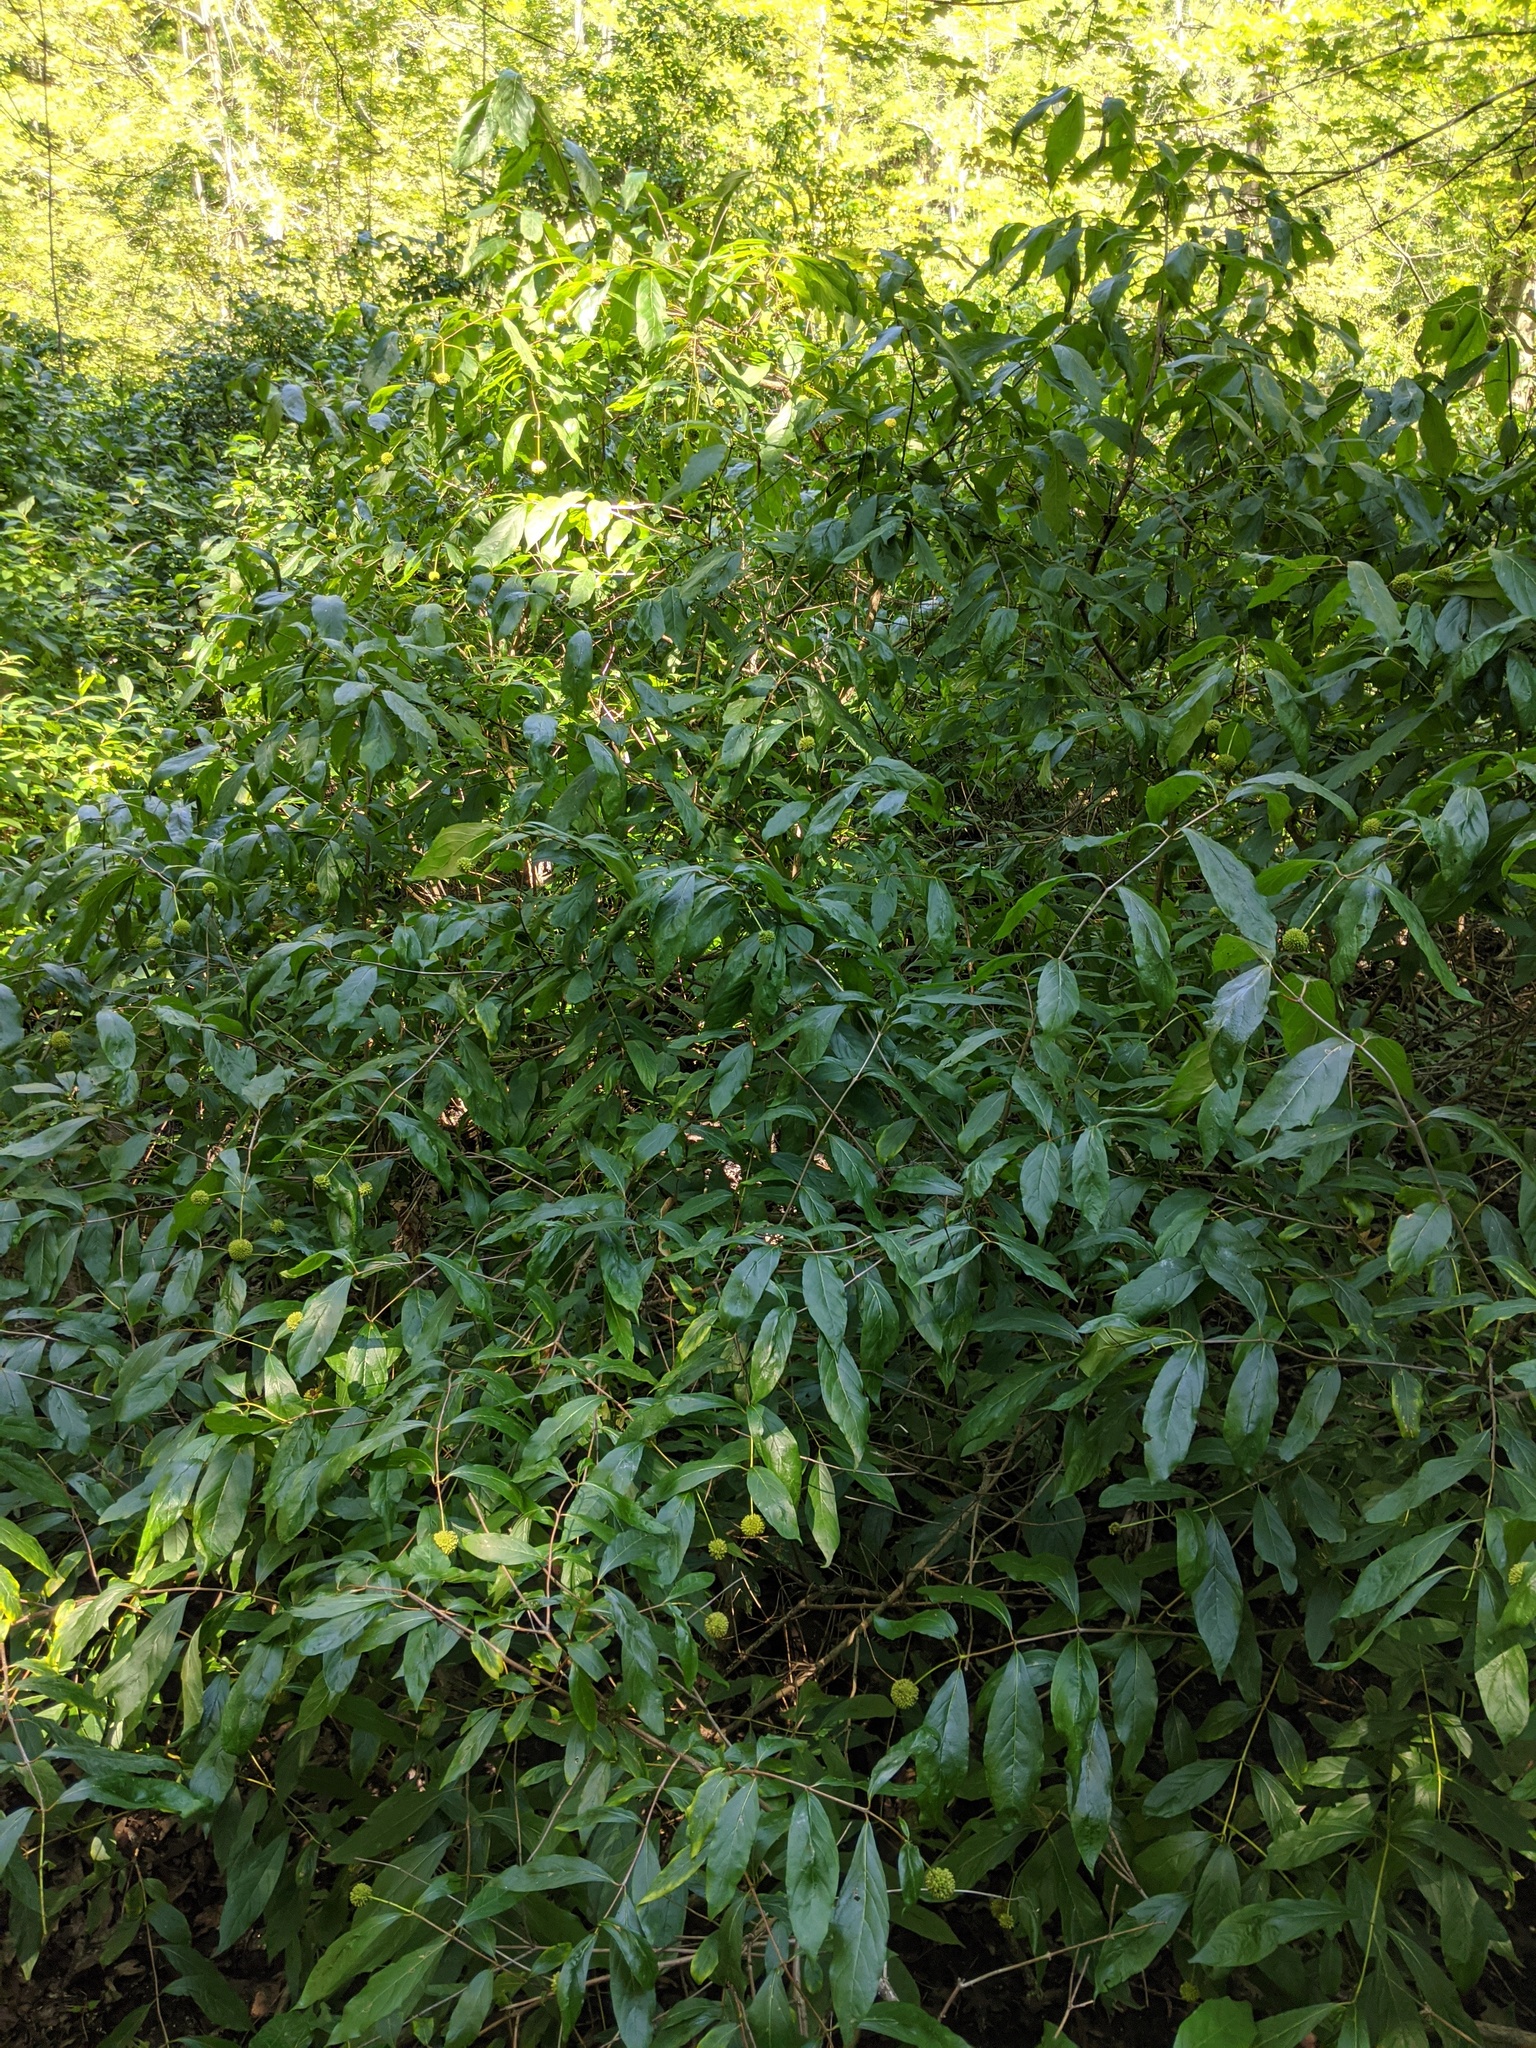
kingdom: Plantae
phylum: Tracheophyta
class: Magnoliopsida
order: Gentianales
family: Rubiaceae
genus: Cephalanthus
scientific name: Cephalanthus occidentalis
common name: Button-willow
